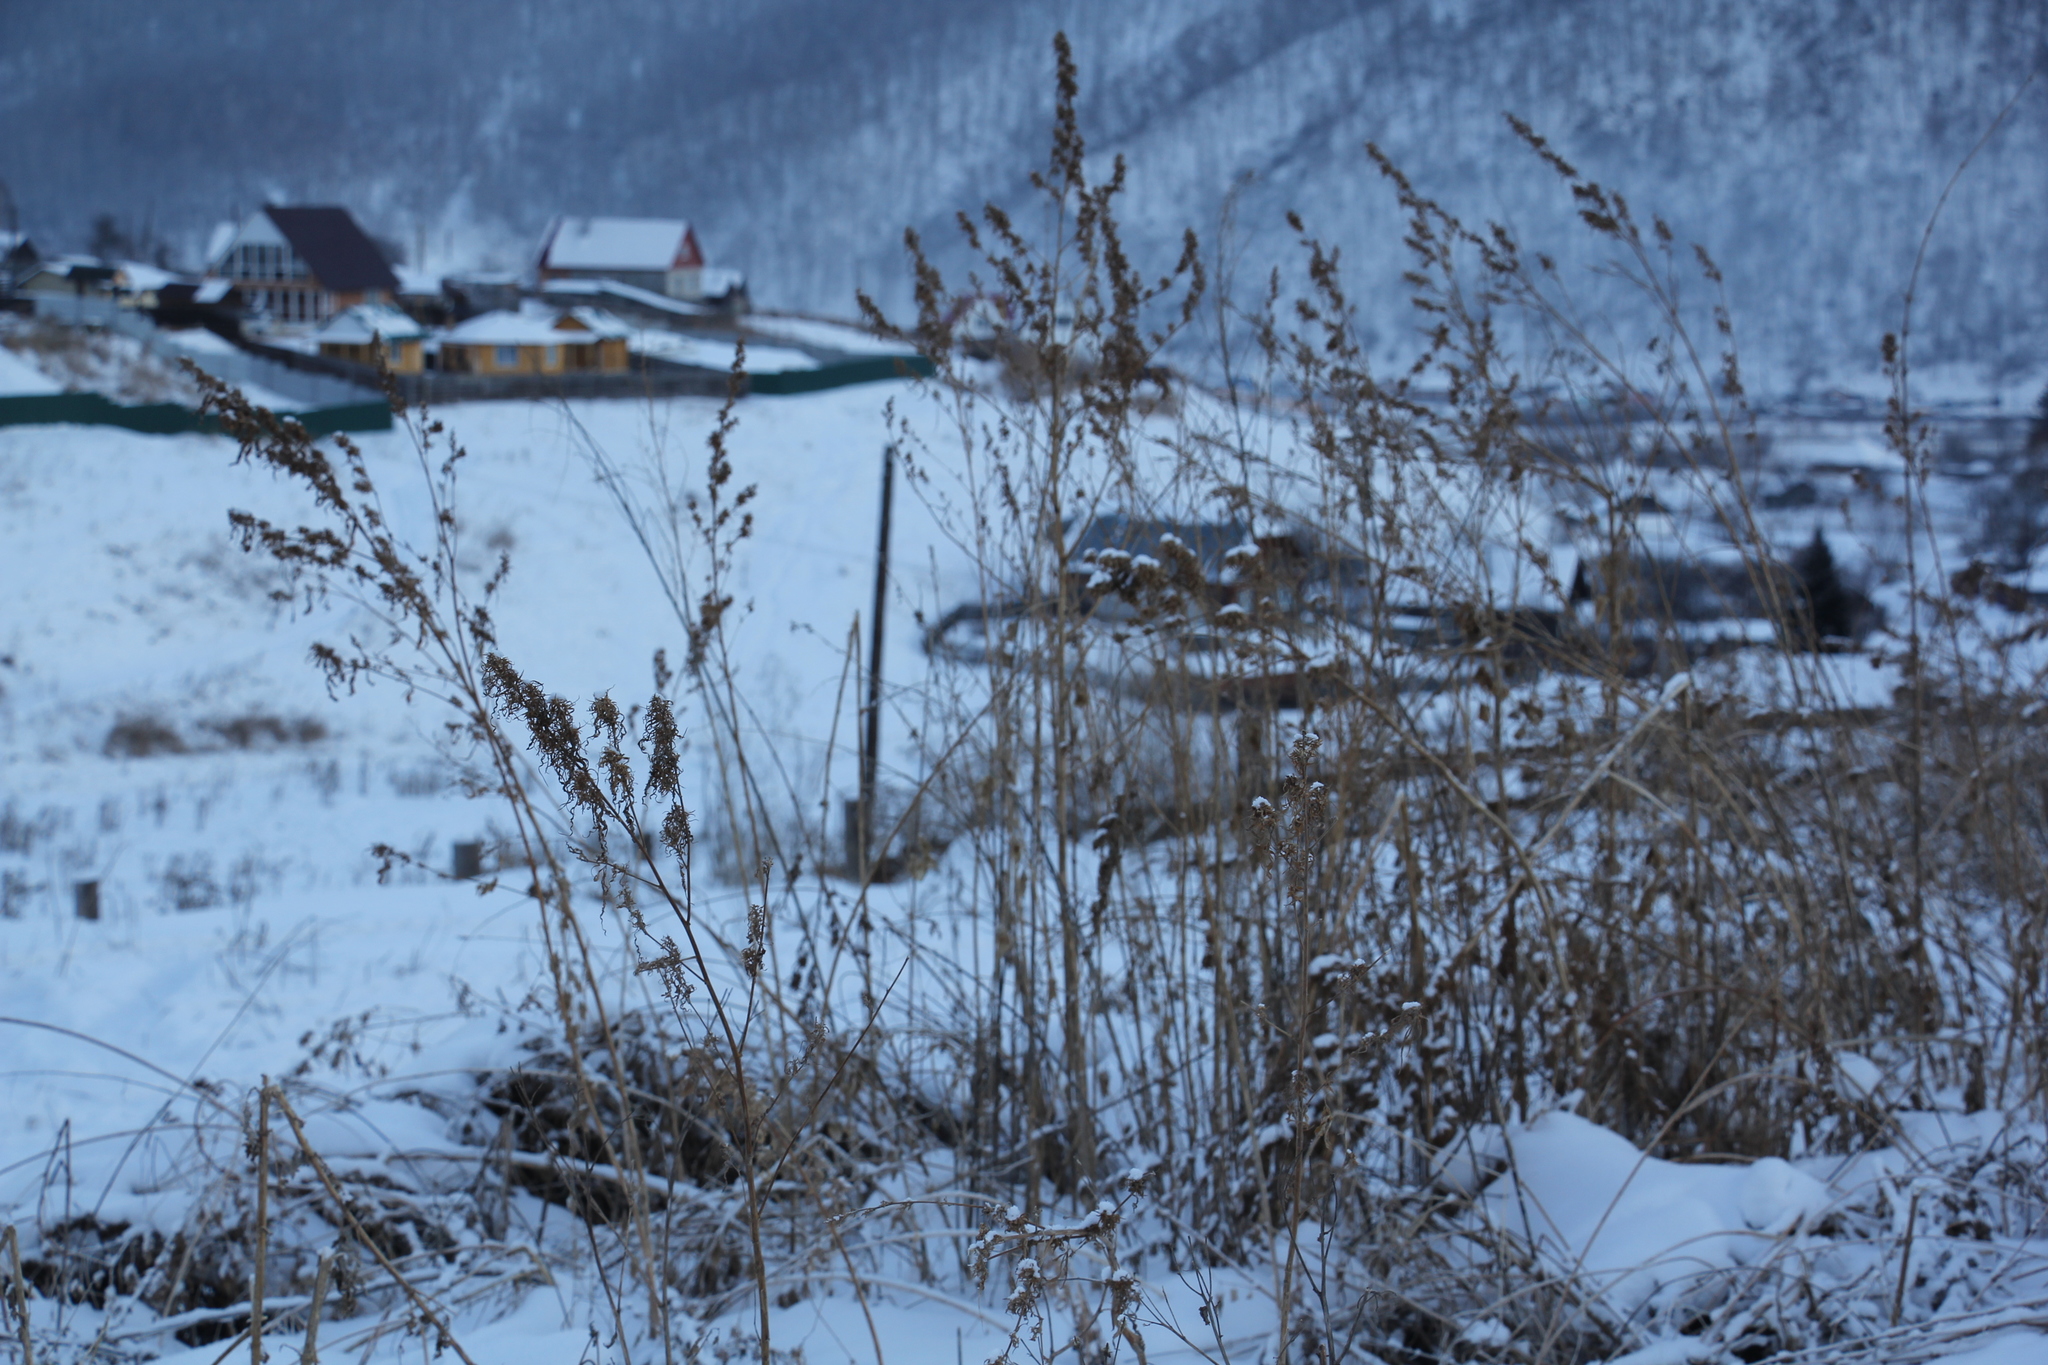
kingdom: Plantae
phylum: Tracheophyta
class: Magnoliopsida
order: Rosales
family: Cannabaceae
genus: Cannabis
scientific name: Cannabis sativa
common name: Hemp
